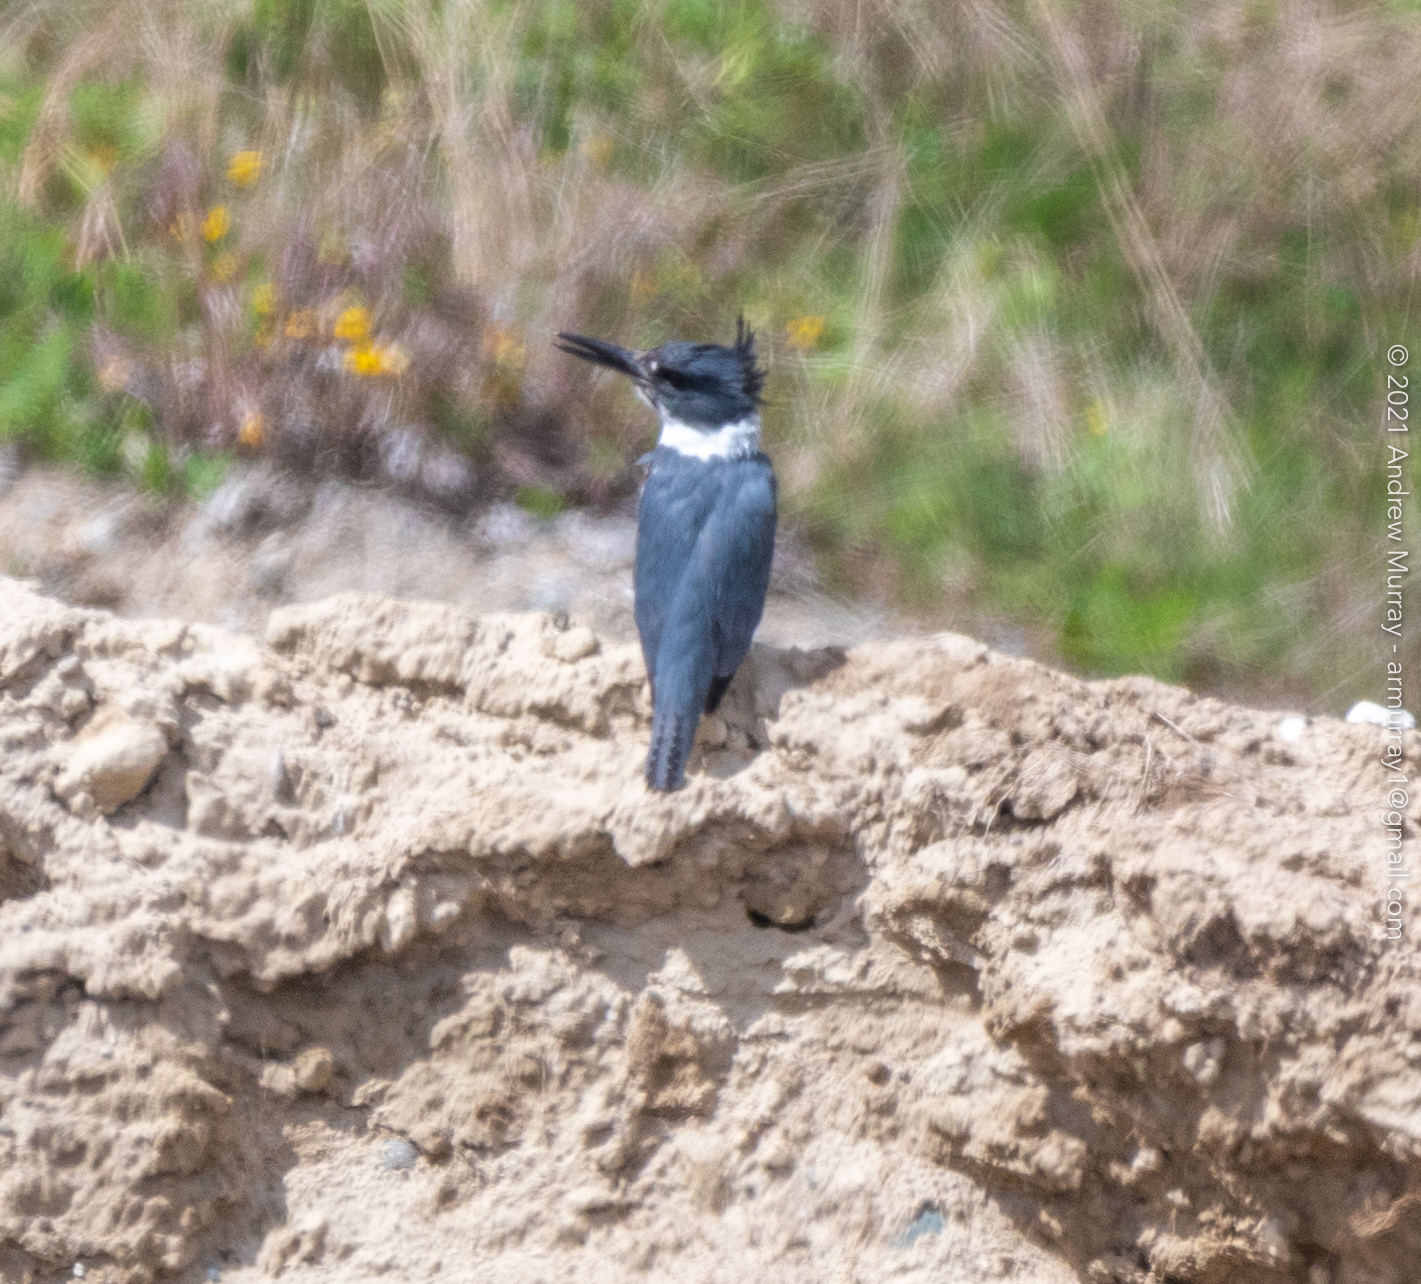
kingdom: Animalia
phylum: Chordata
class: Aves
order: Coraciiformes
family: Alcedinidae
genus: Megaceryle
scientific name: Megaceryle alcyon
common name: Belted kingfisher
